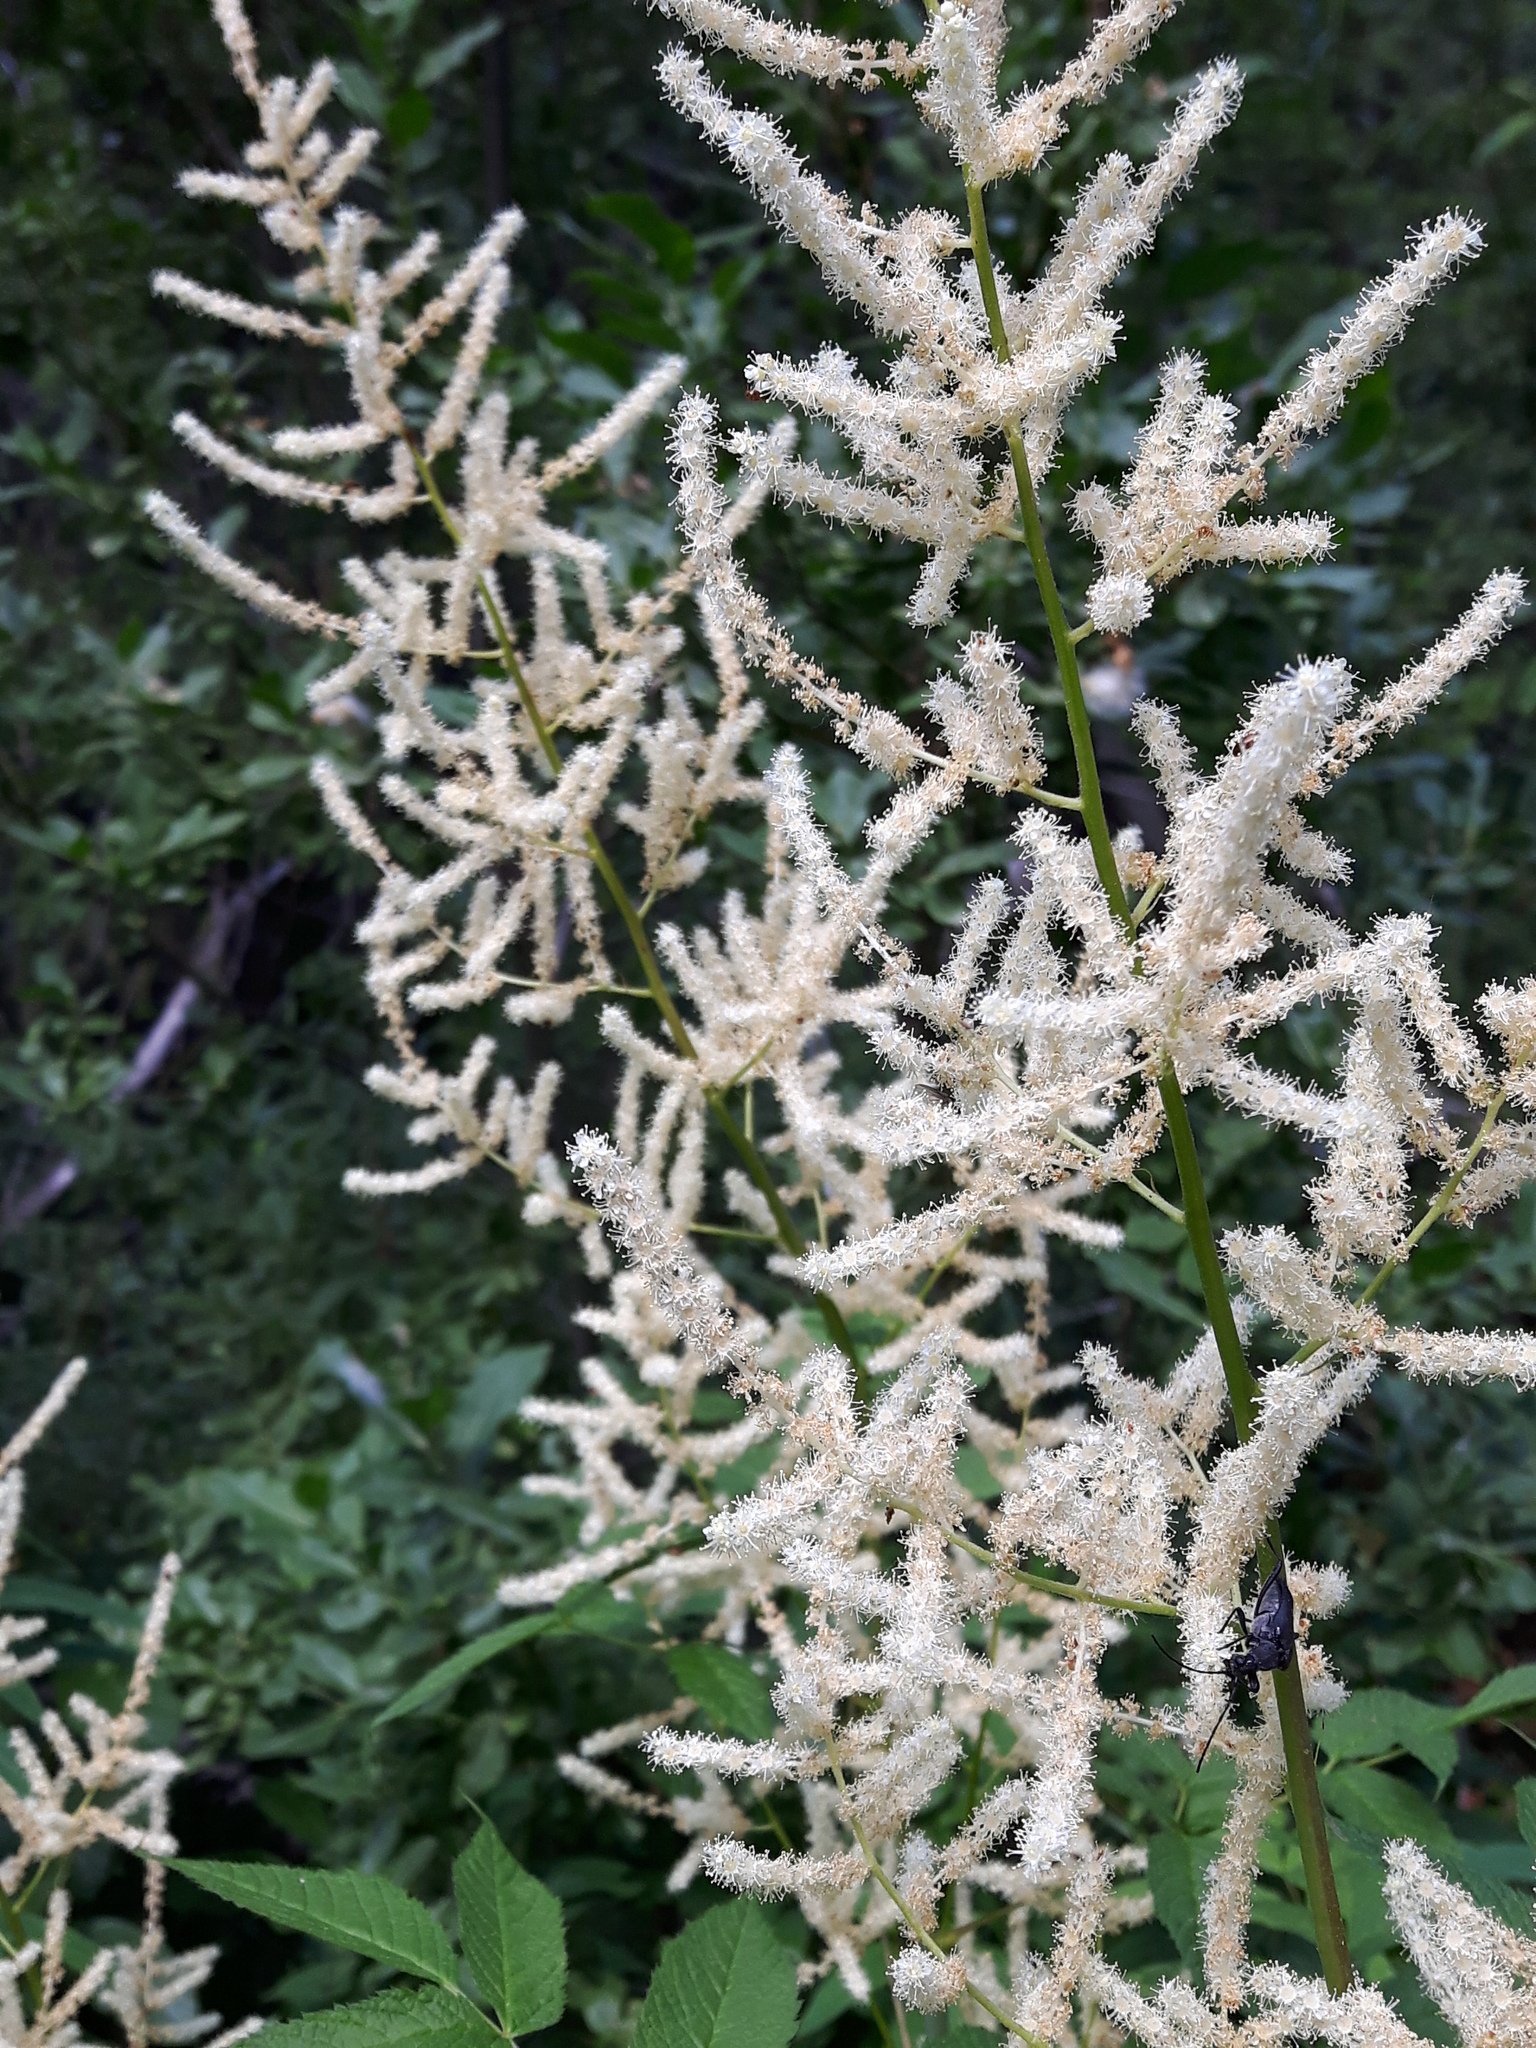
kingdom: Plantae
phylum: Tracheophyta
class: Magnoliopsida
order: Rosales
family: Rosaceae
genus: Aruncus
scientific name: Aruncus dioicus
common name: Buck's-beard
